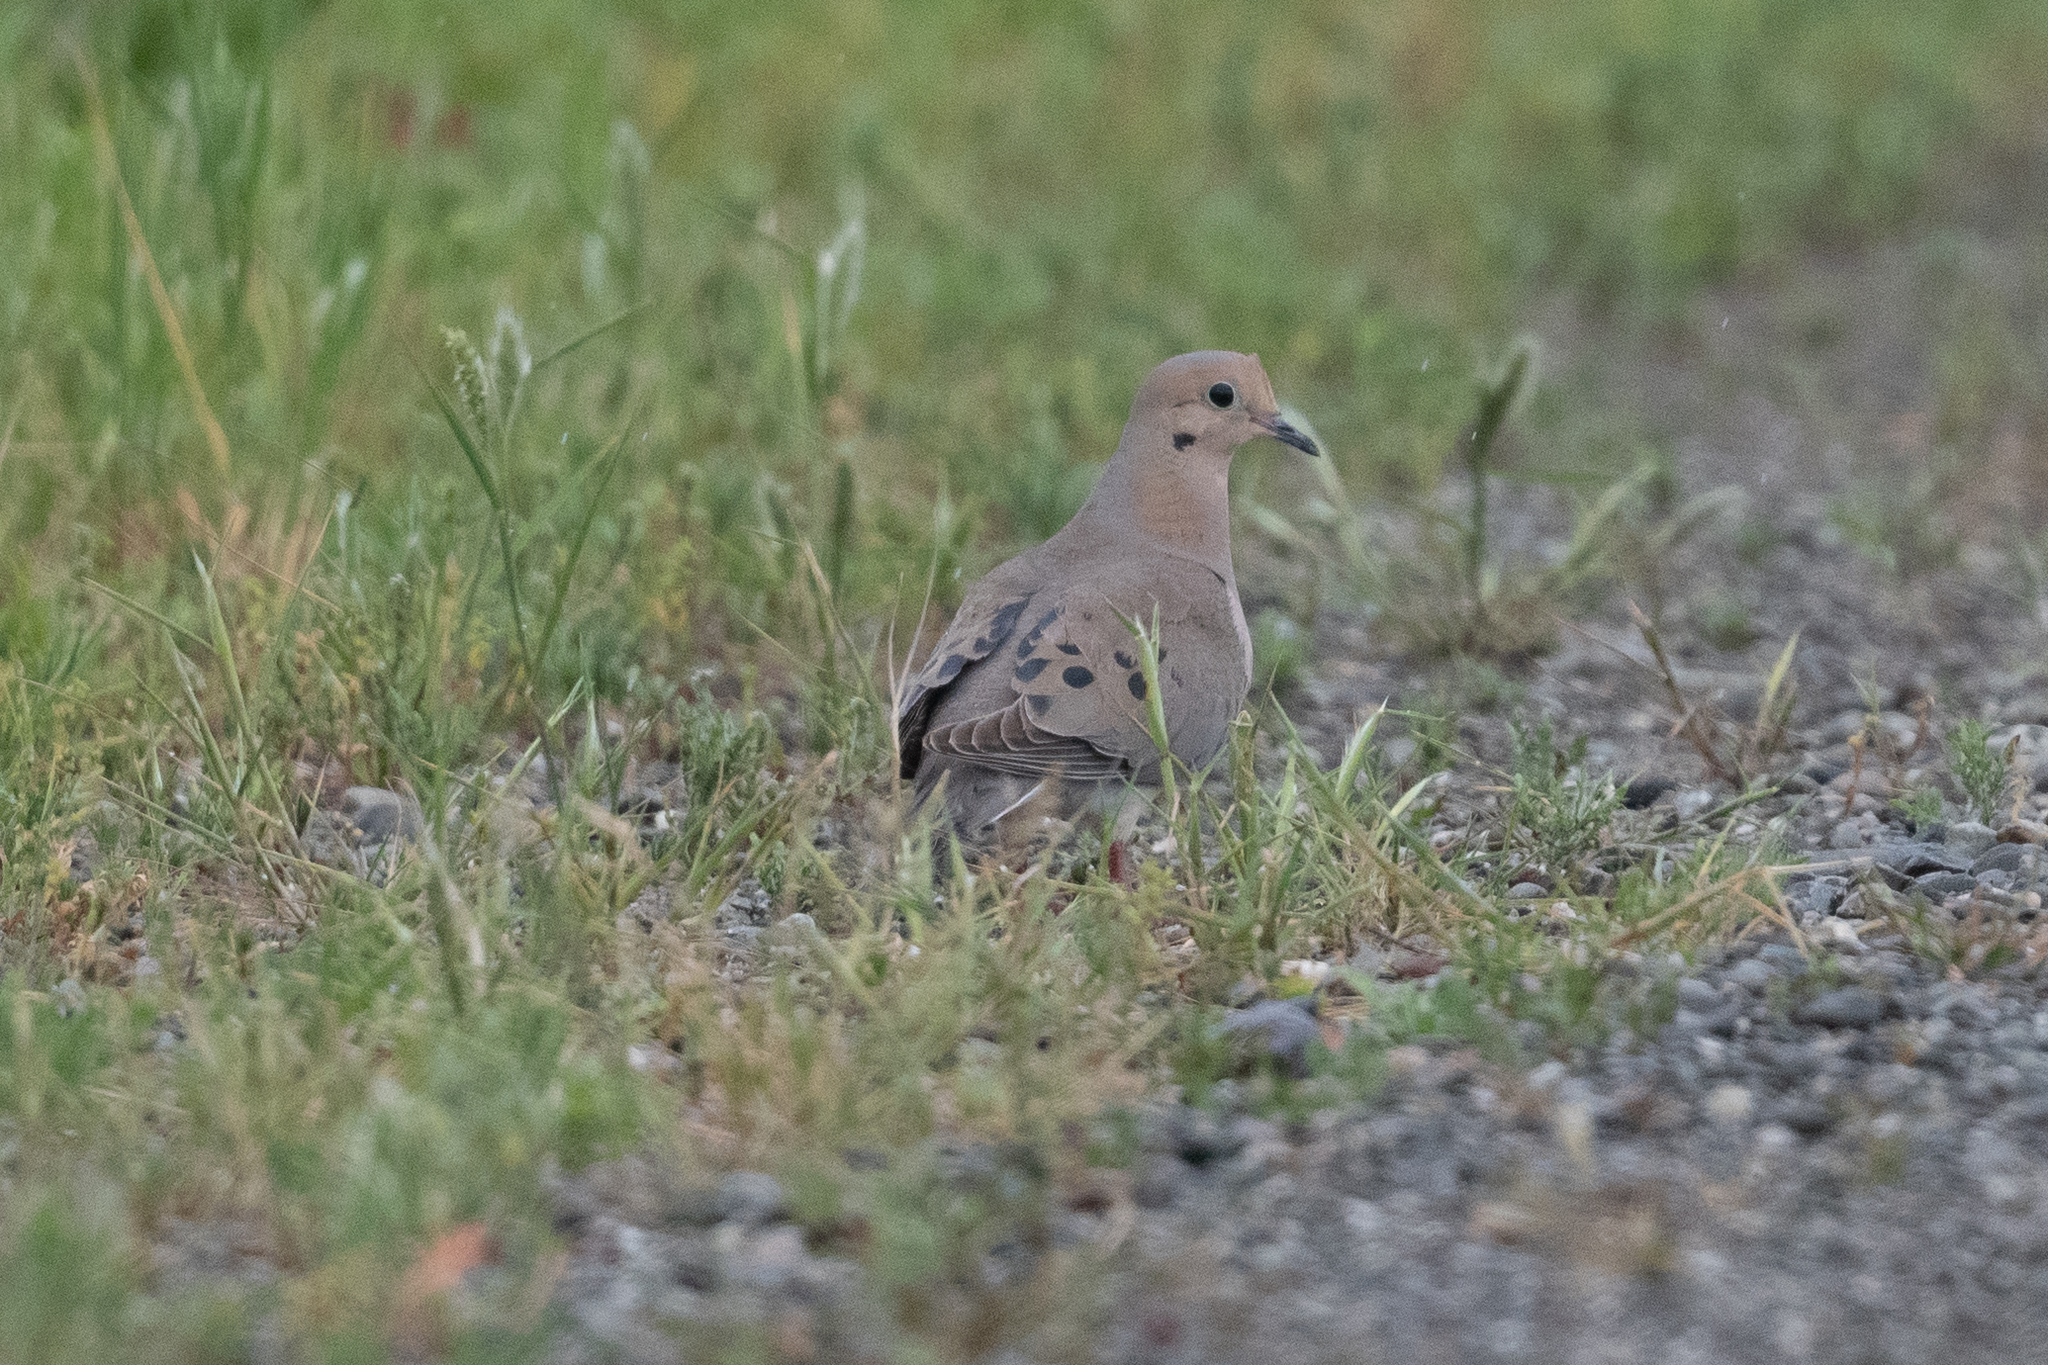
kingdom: Animalia
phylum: Chordata
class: Aves
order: Columbiformes
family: Columbidae
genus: Zenaida
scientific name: Zenaida macroura
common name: Mourning dove
